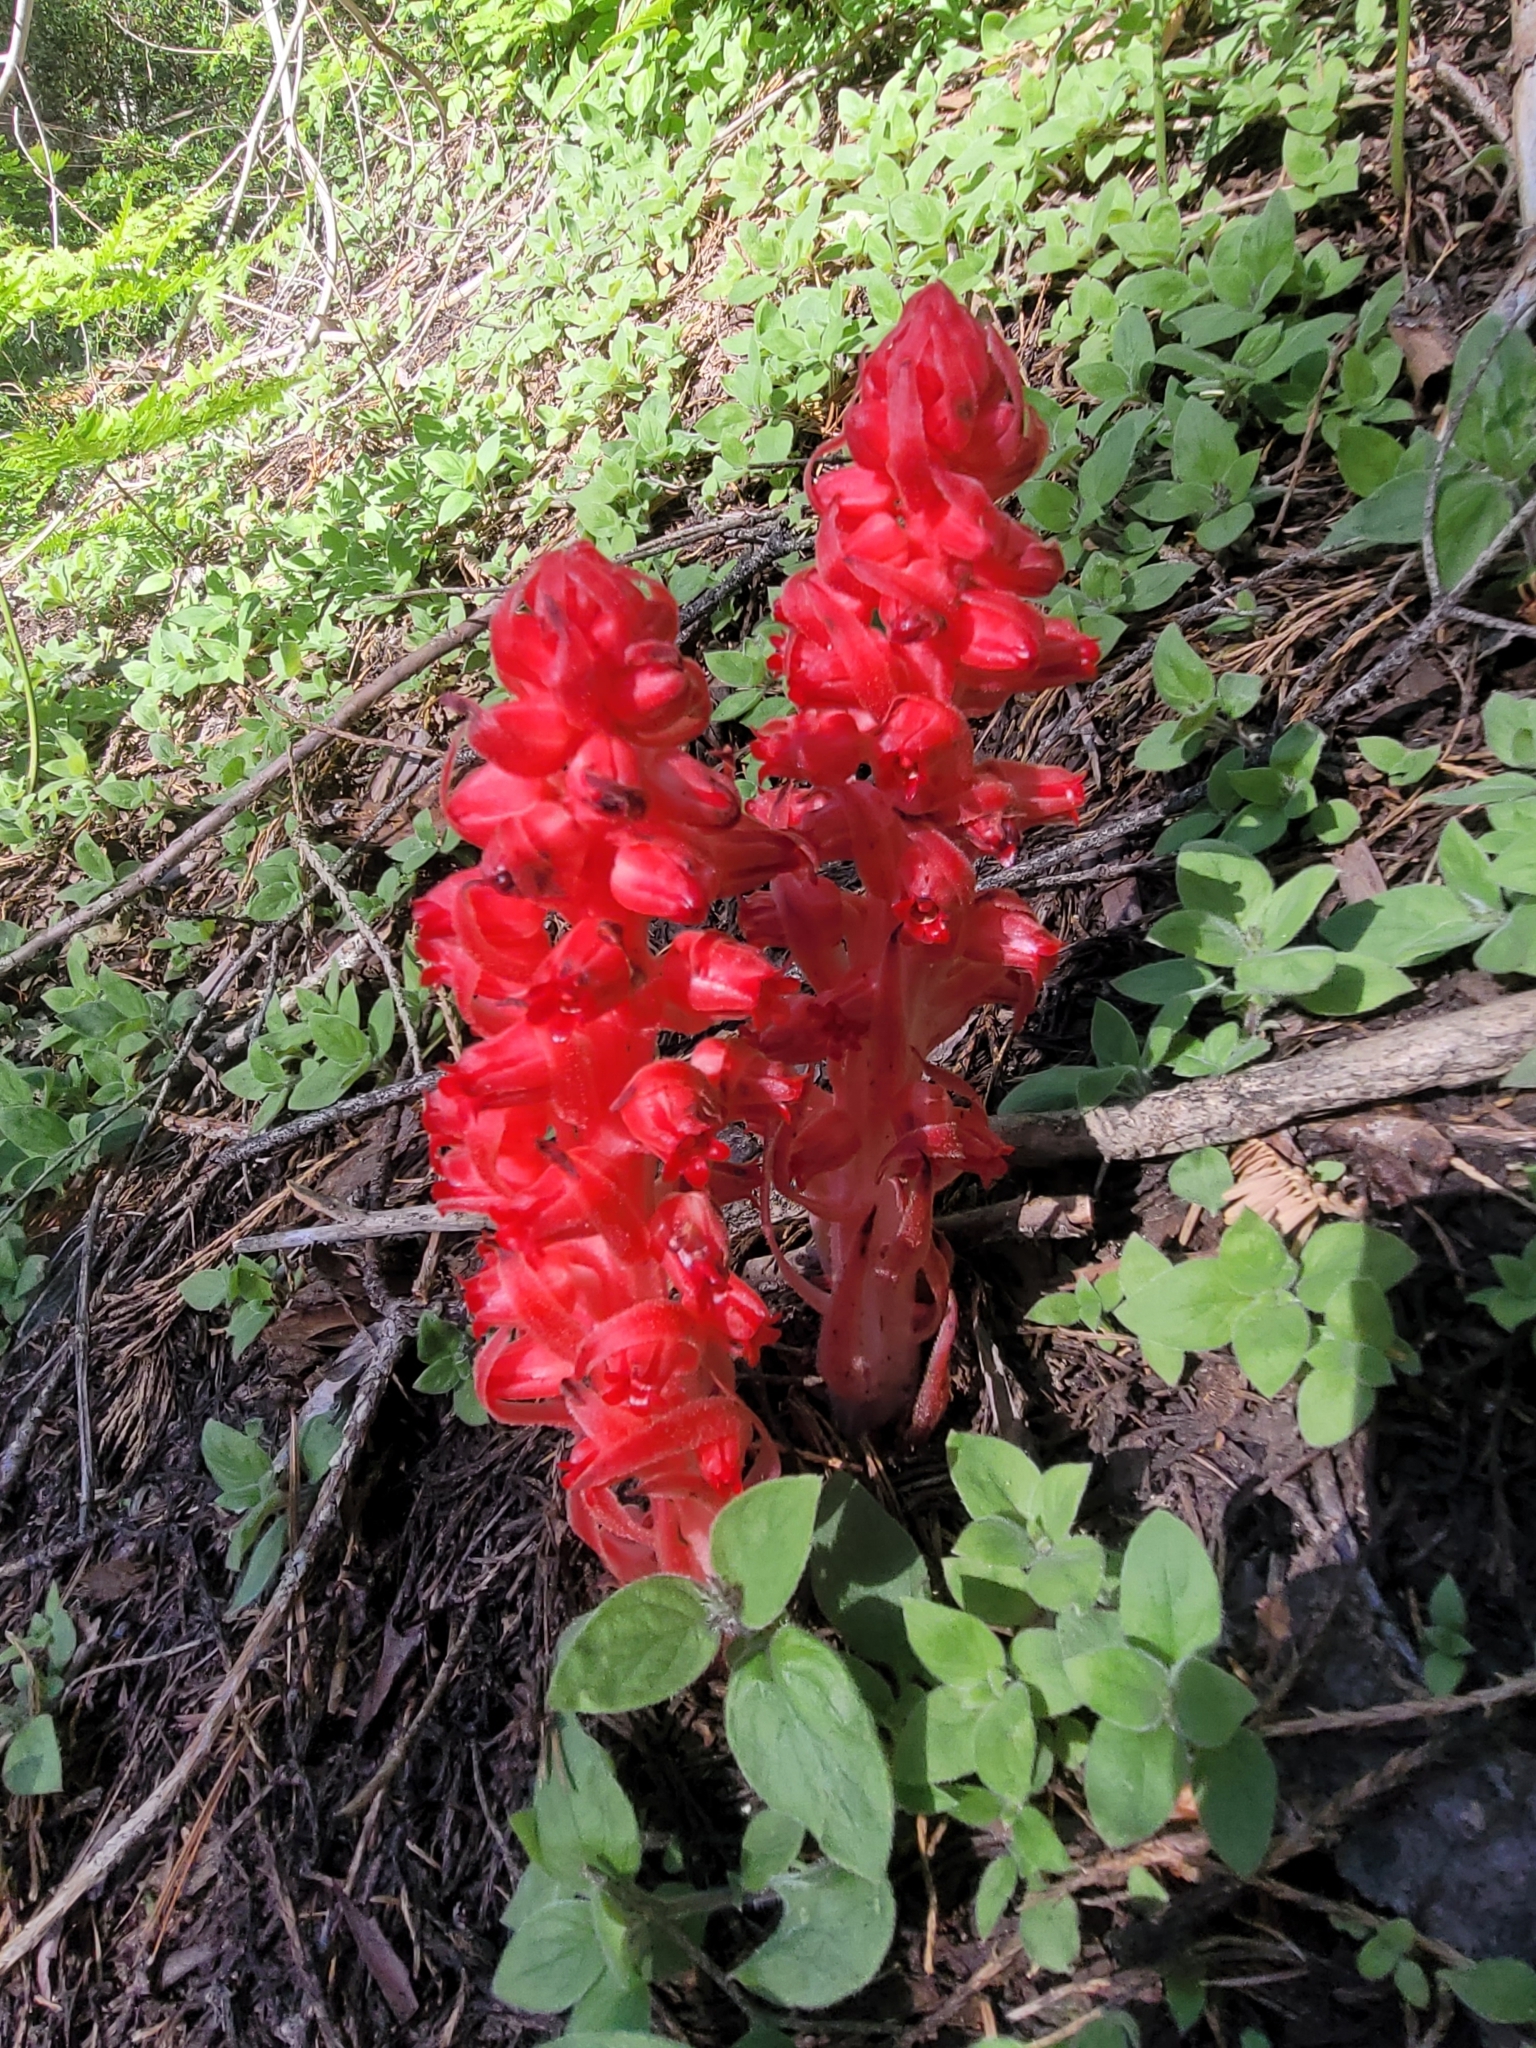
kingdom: Plantae
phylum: Tracheophyta
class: Magnoliopsida
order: Ericales
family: Ericaceae
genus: Sarcodes
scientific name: Sarcodes sanguinea
